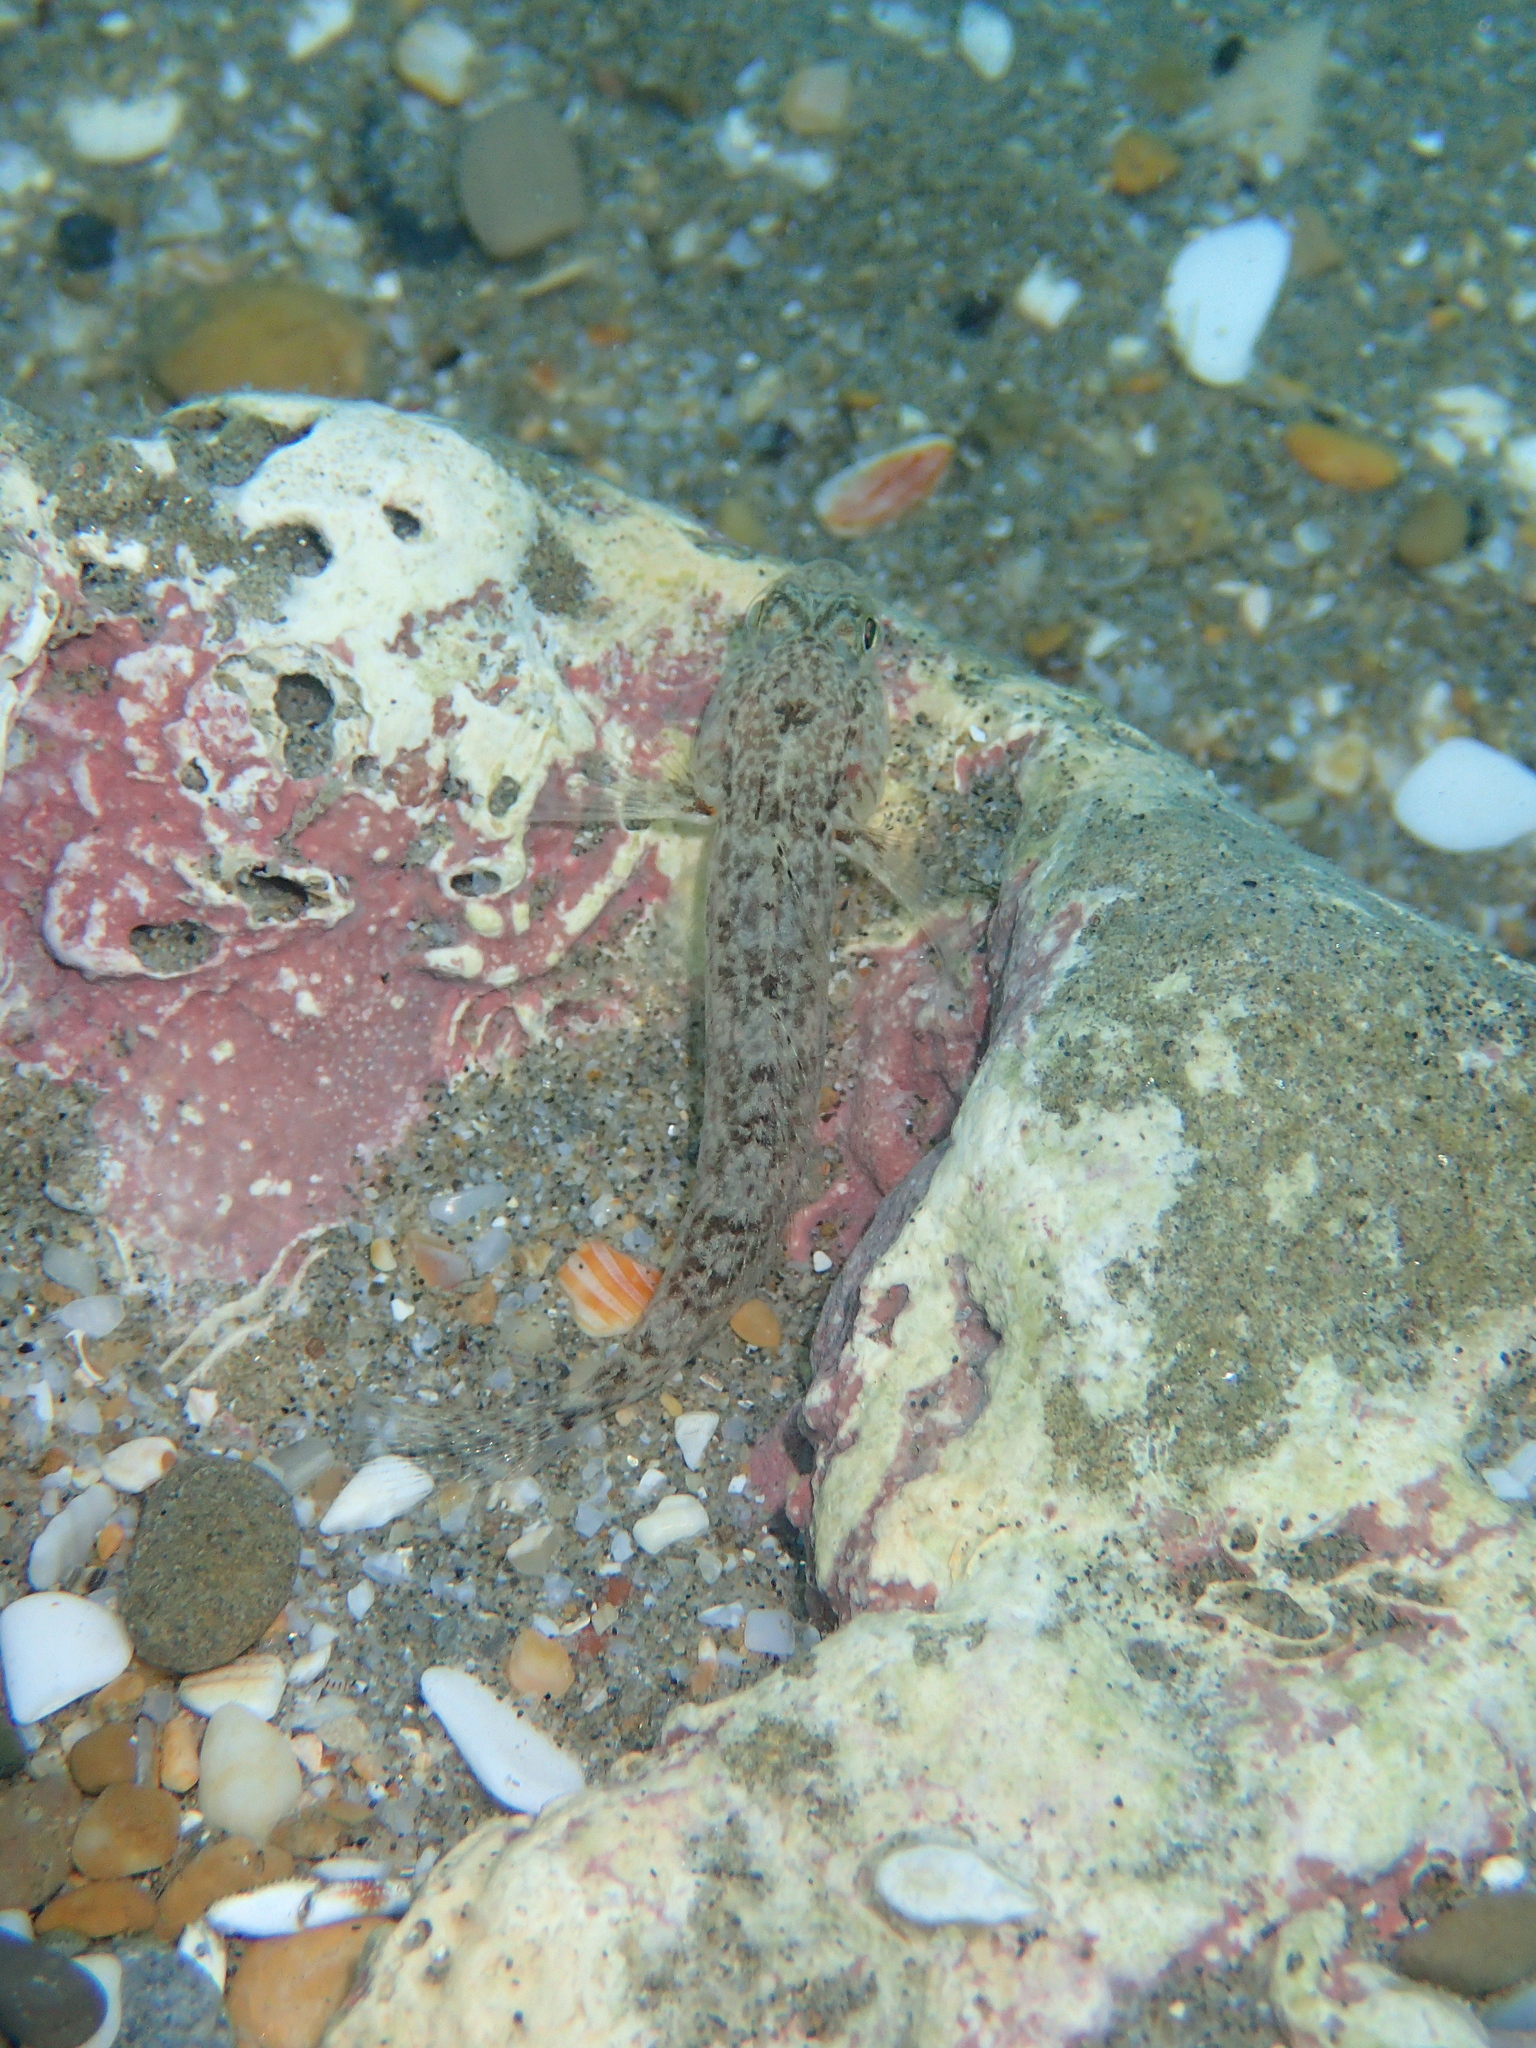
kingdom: Animalia
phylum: Chordata
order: Perciformes
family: Gobiidae
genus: Gobius
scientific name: Gobius niger
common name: Black goby
